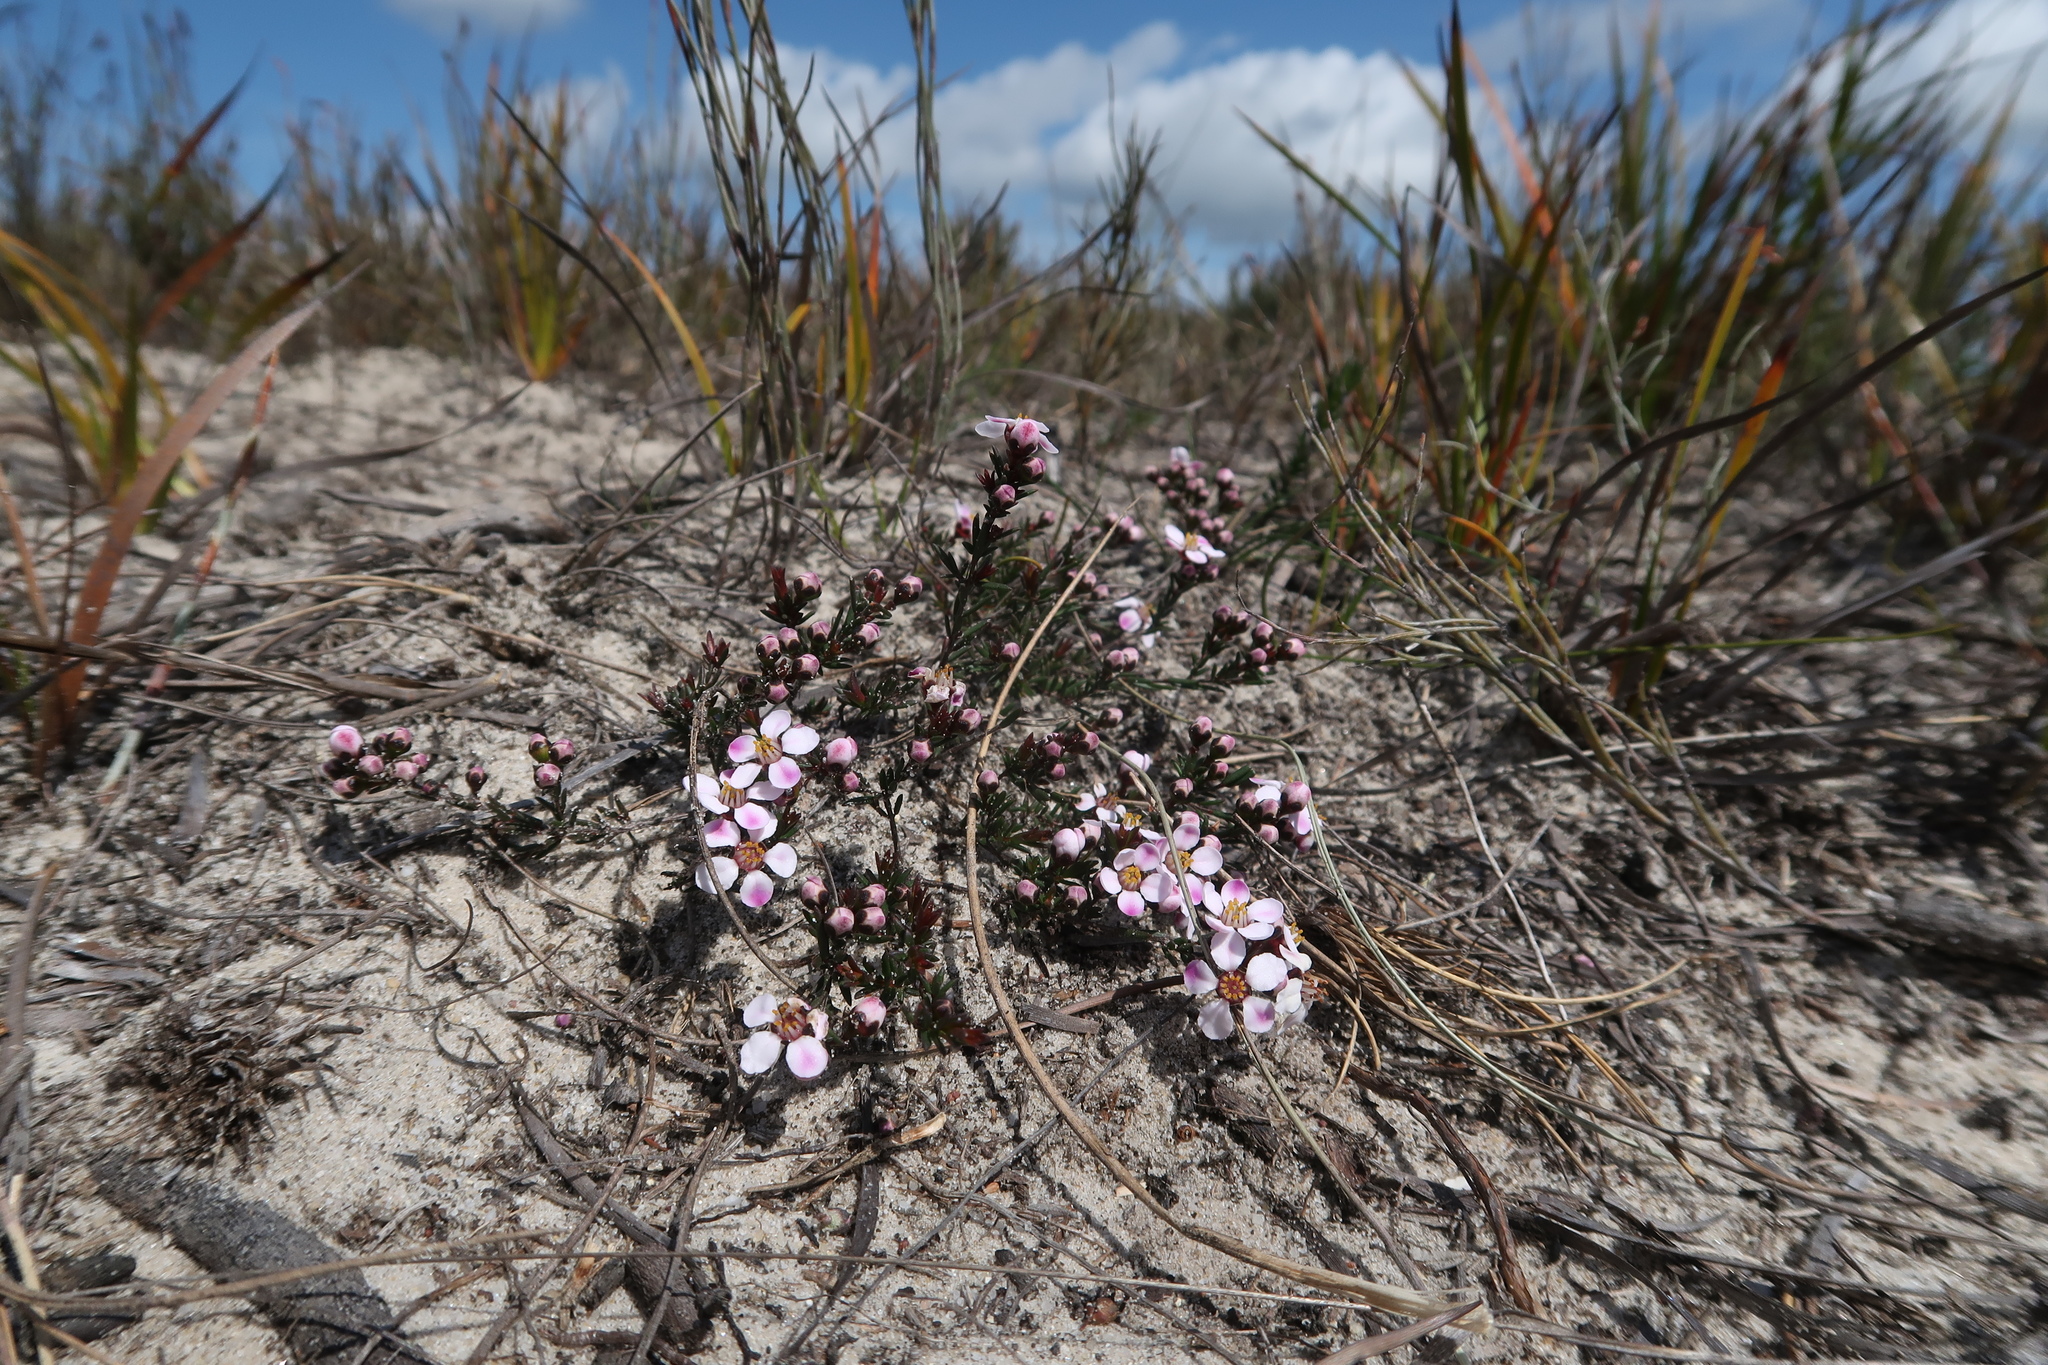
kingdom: Plantae
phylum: Tracheophyta
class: Magnoliopsida
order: Myrtales
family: Myrtaceae
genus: Euryomyrtus
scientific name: Euryomyrtus ramosissima
